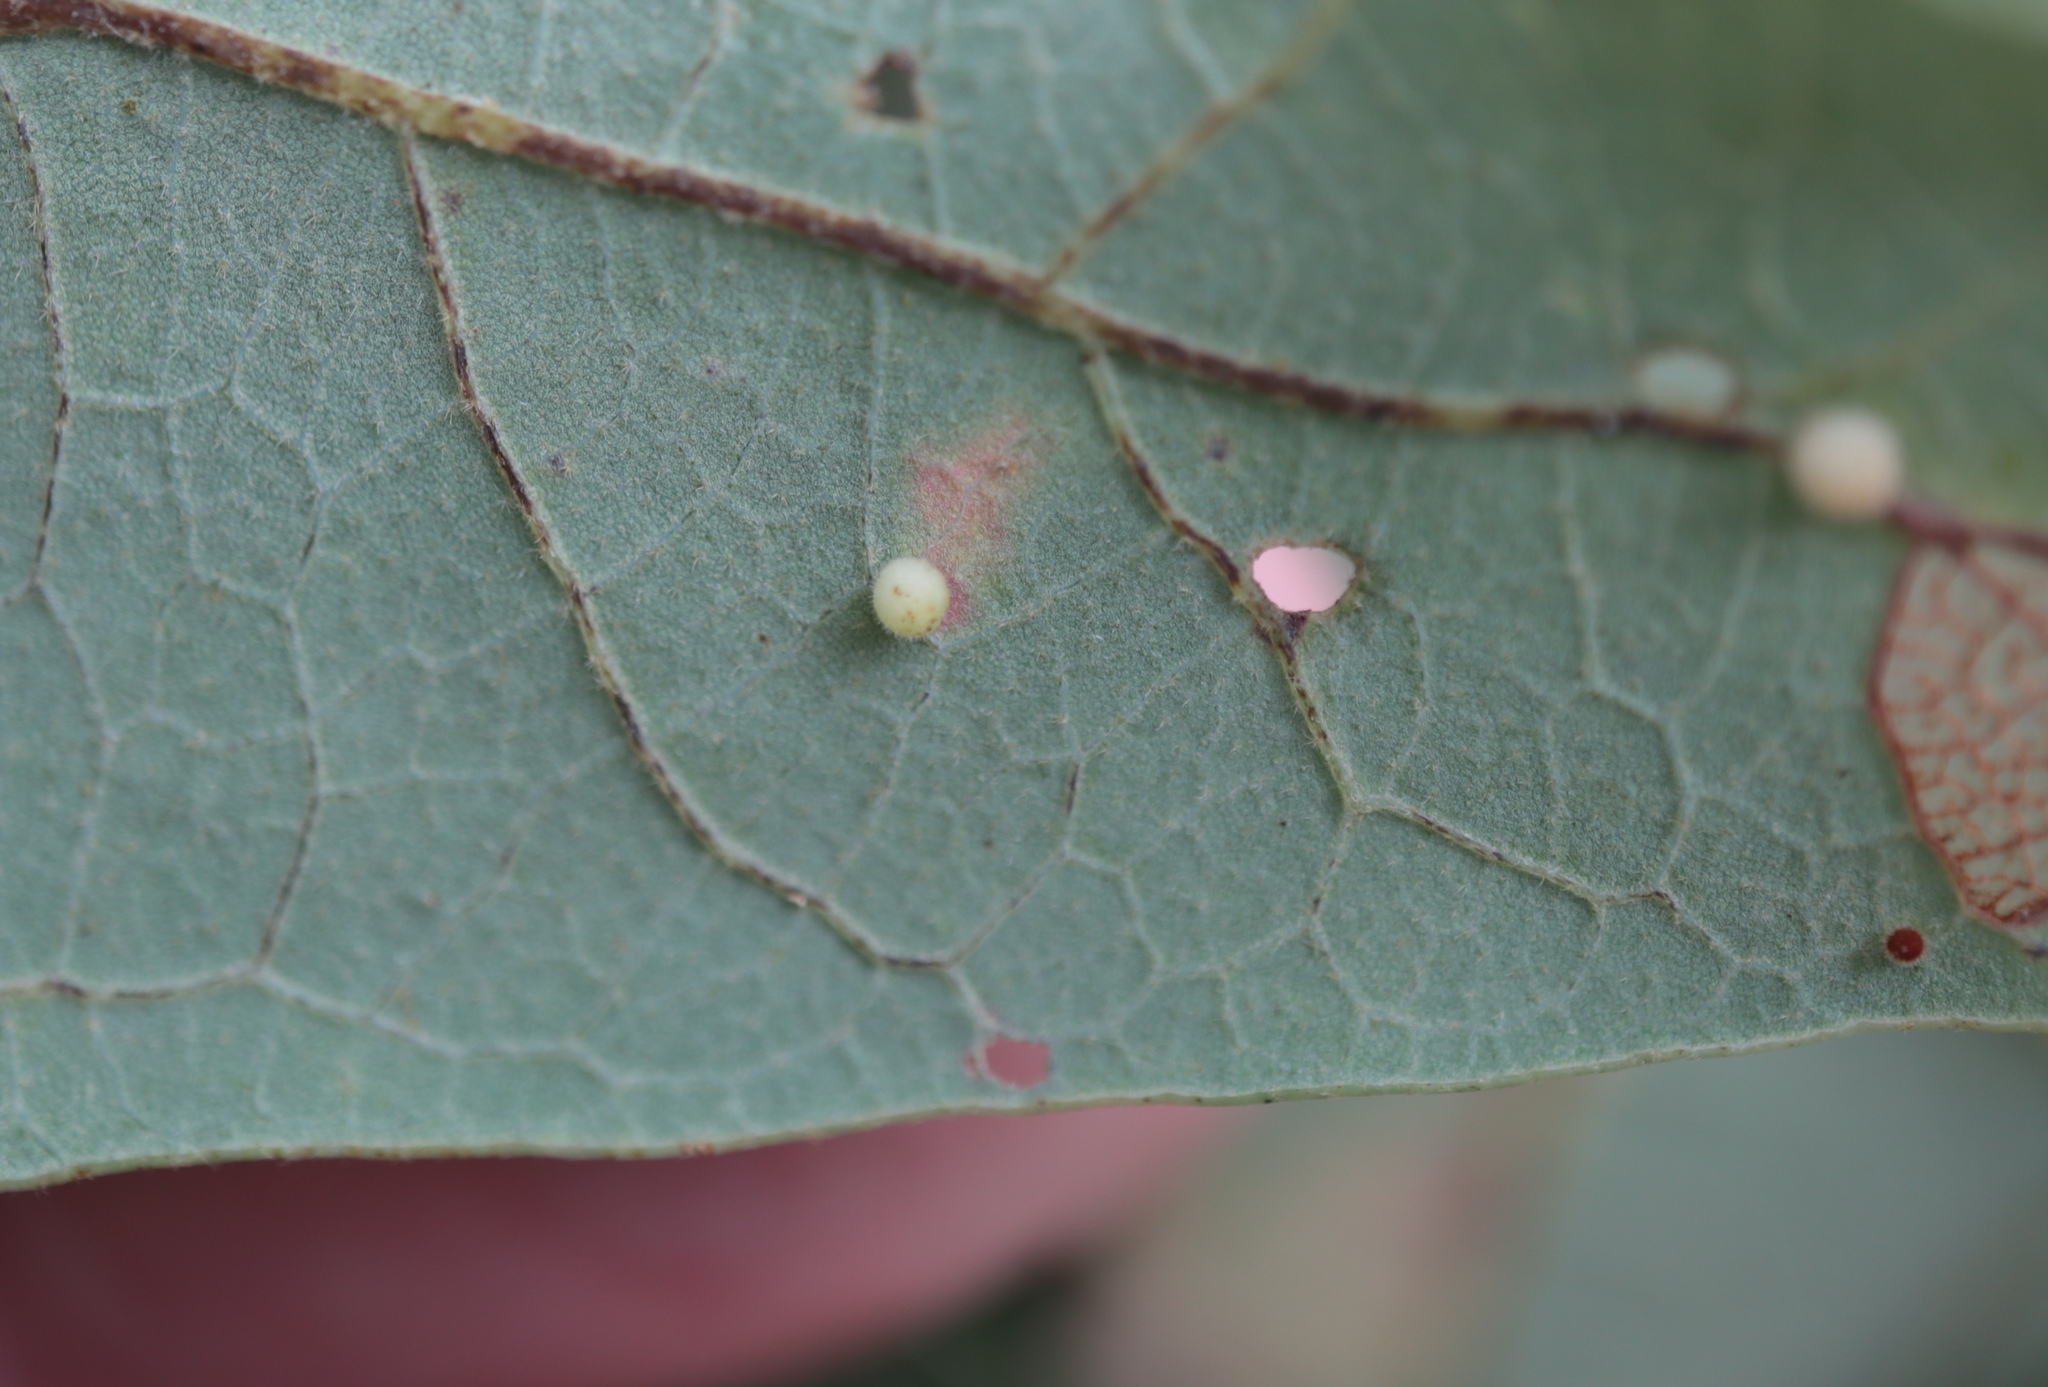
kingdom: Animalia
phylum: Arthropoda
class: Insecta
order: Hymenoptera
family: Cynipidae
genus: Neuroterus
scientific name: Neuroterus saltarius
